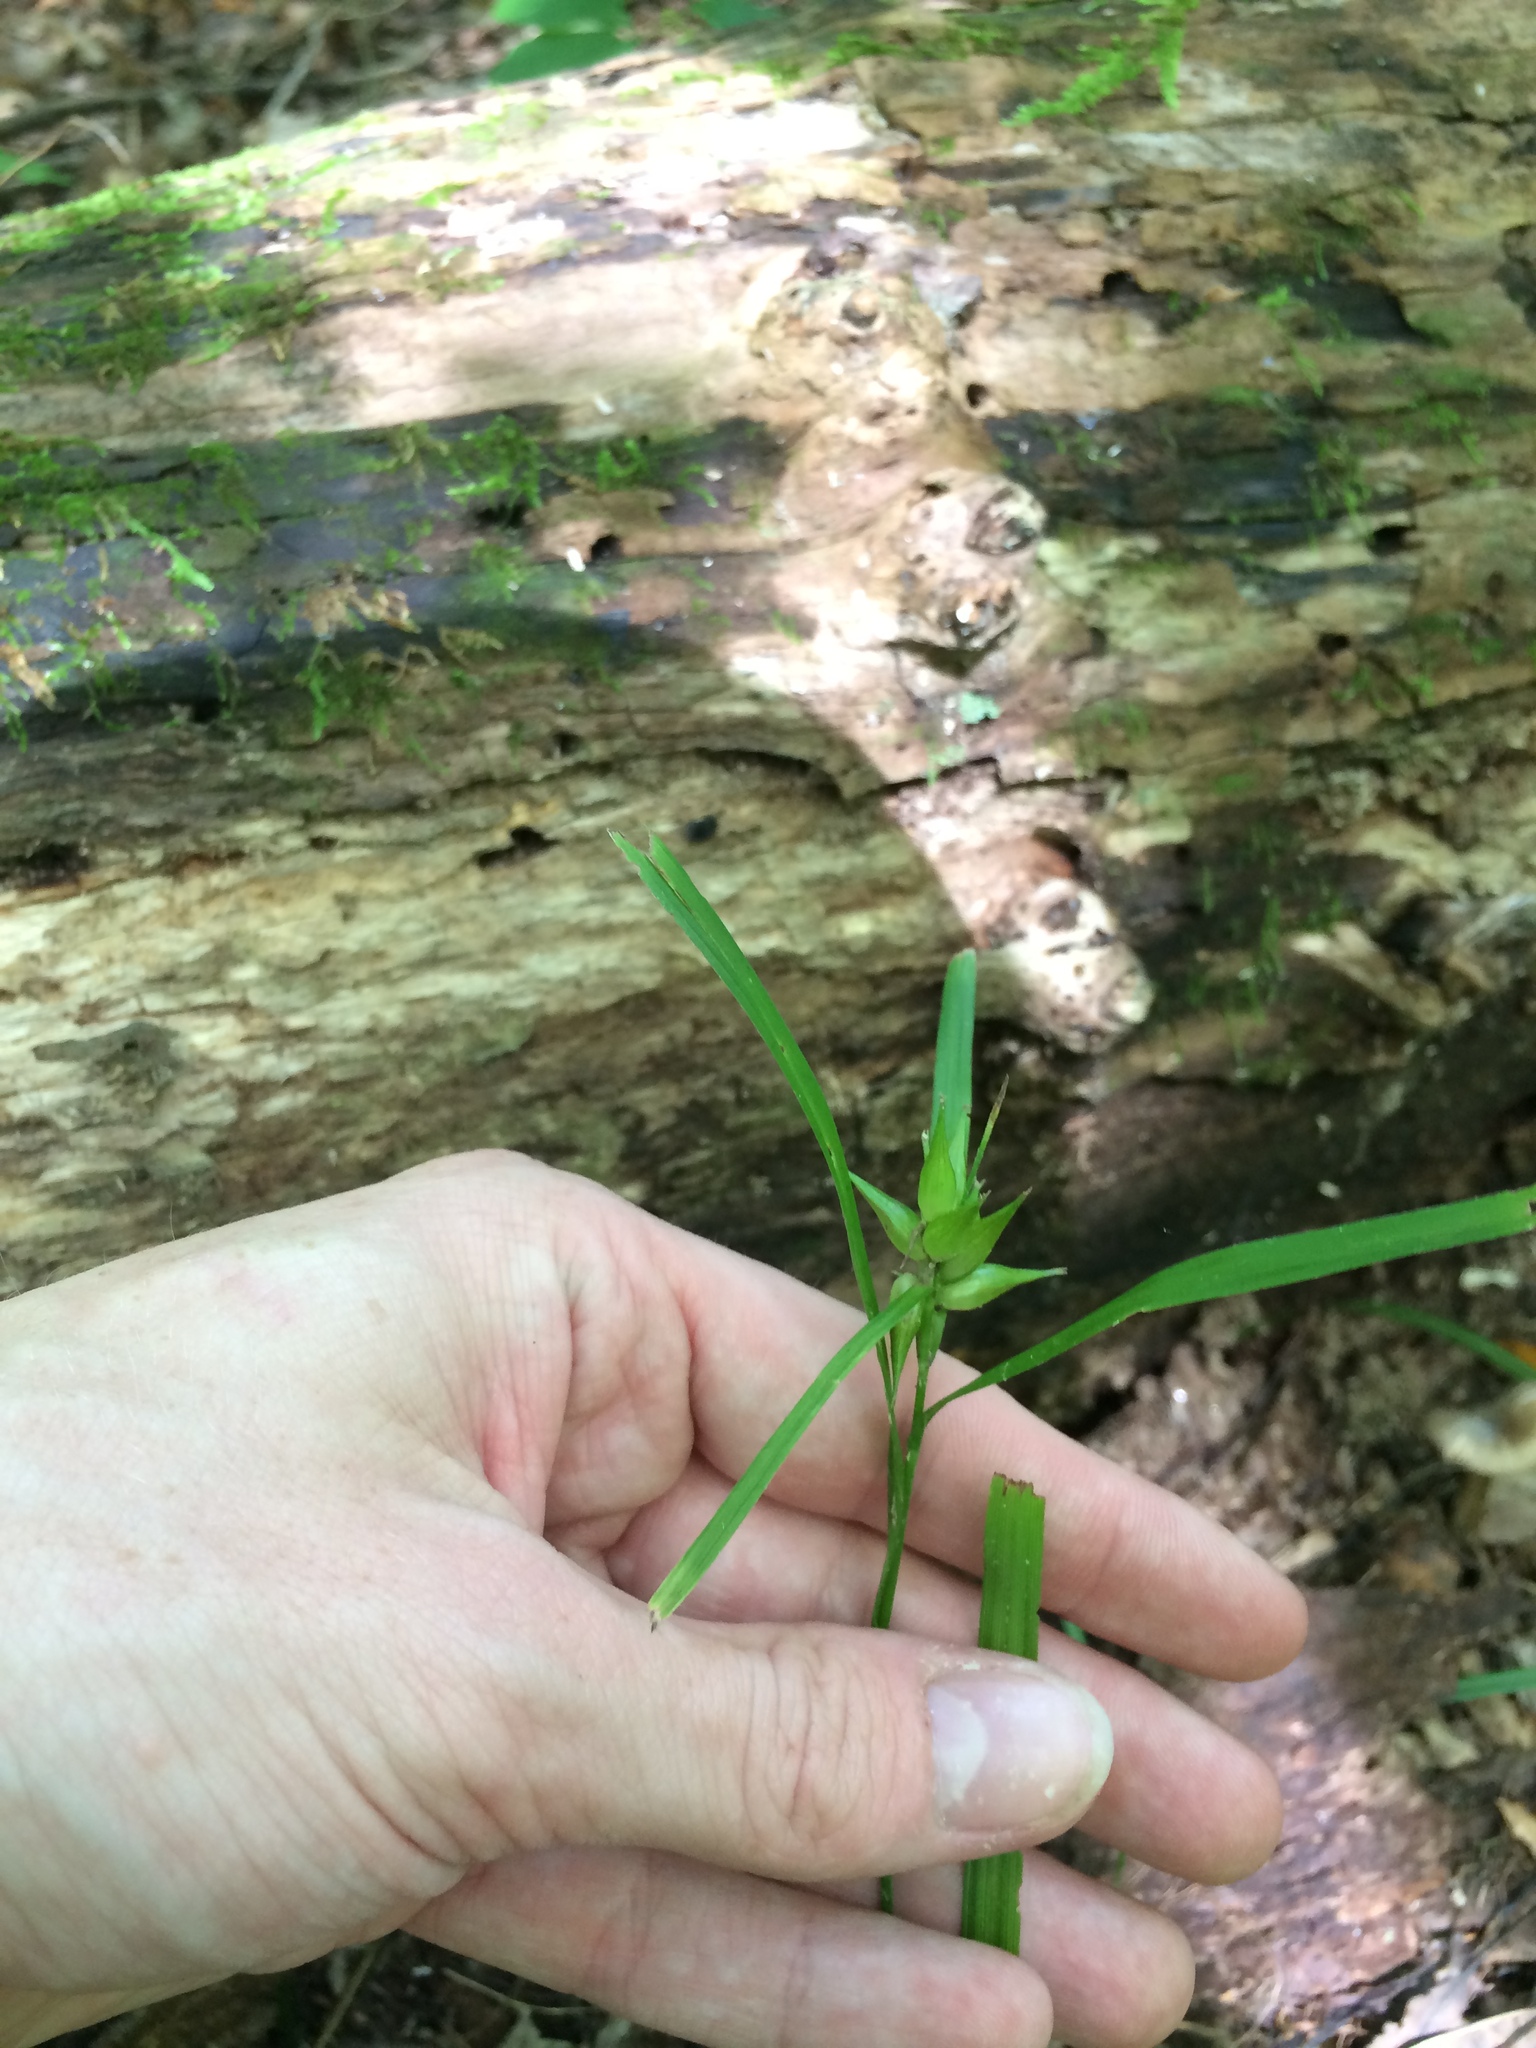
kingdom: Plantae
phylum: Tracheophyta
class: Liliopsida
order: Poales
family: Cyperaceae
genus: Carex
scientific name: Carex intumescens
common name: Greater bladder sedge
